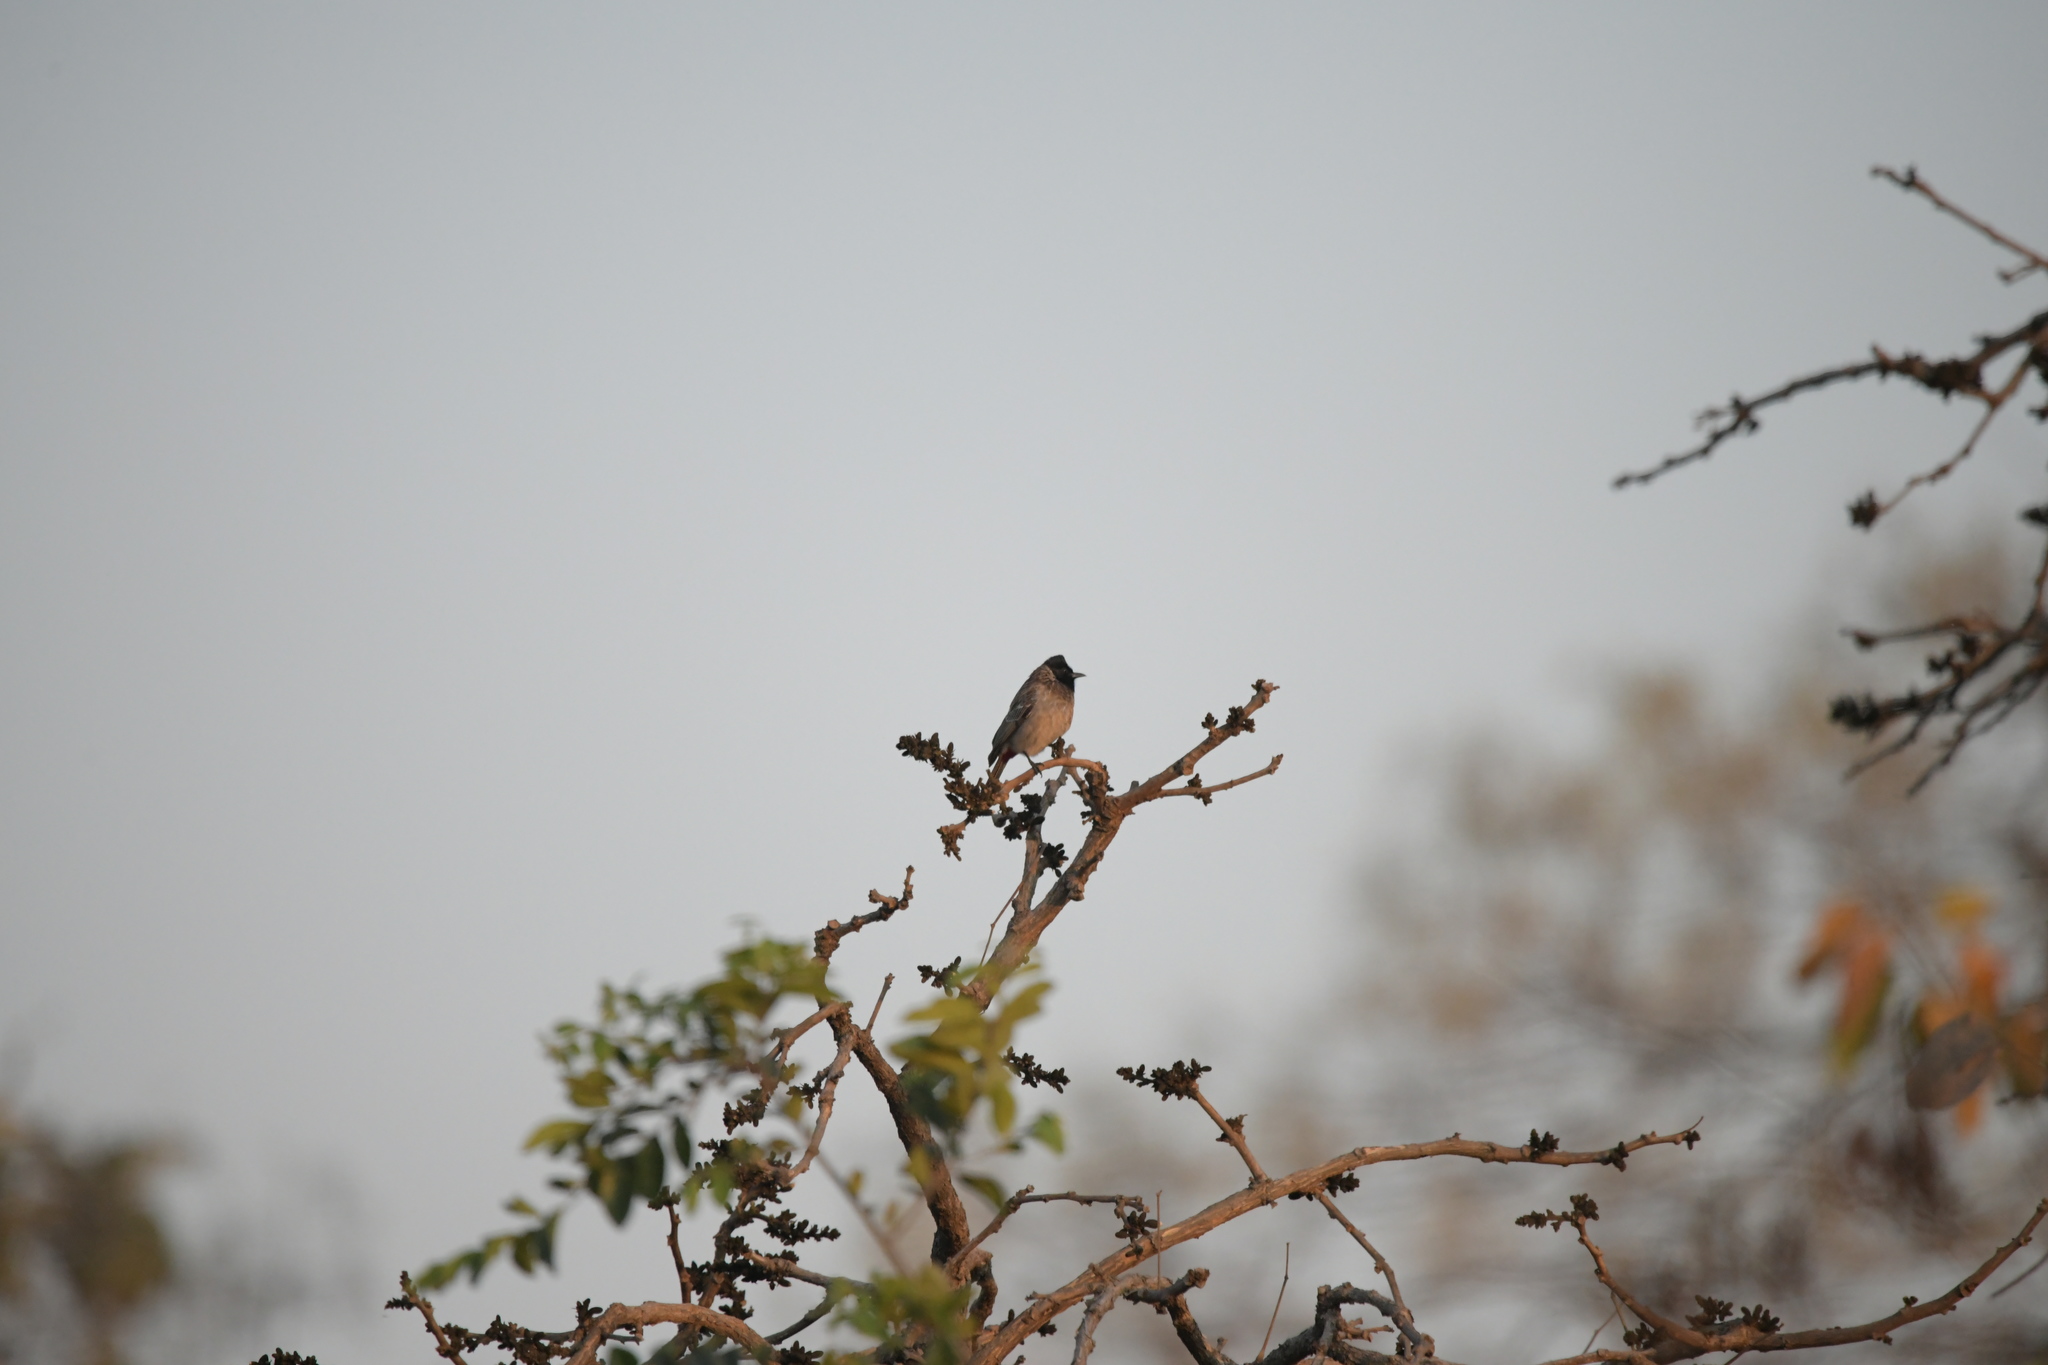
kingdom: Animalia
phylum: Chordata
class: Aves
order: Passeriformes
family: Pycnonotidae
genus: Pycnonotus
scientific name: Pycnonotus cafer
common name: Red-vented bulbul
